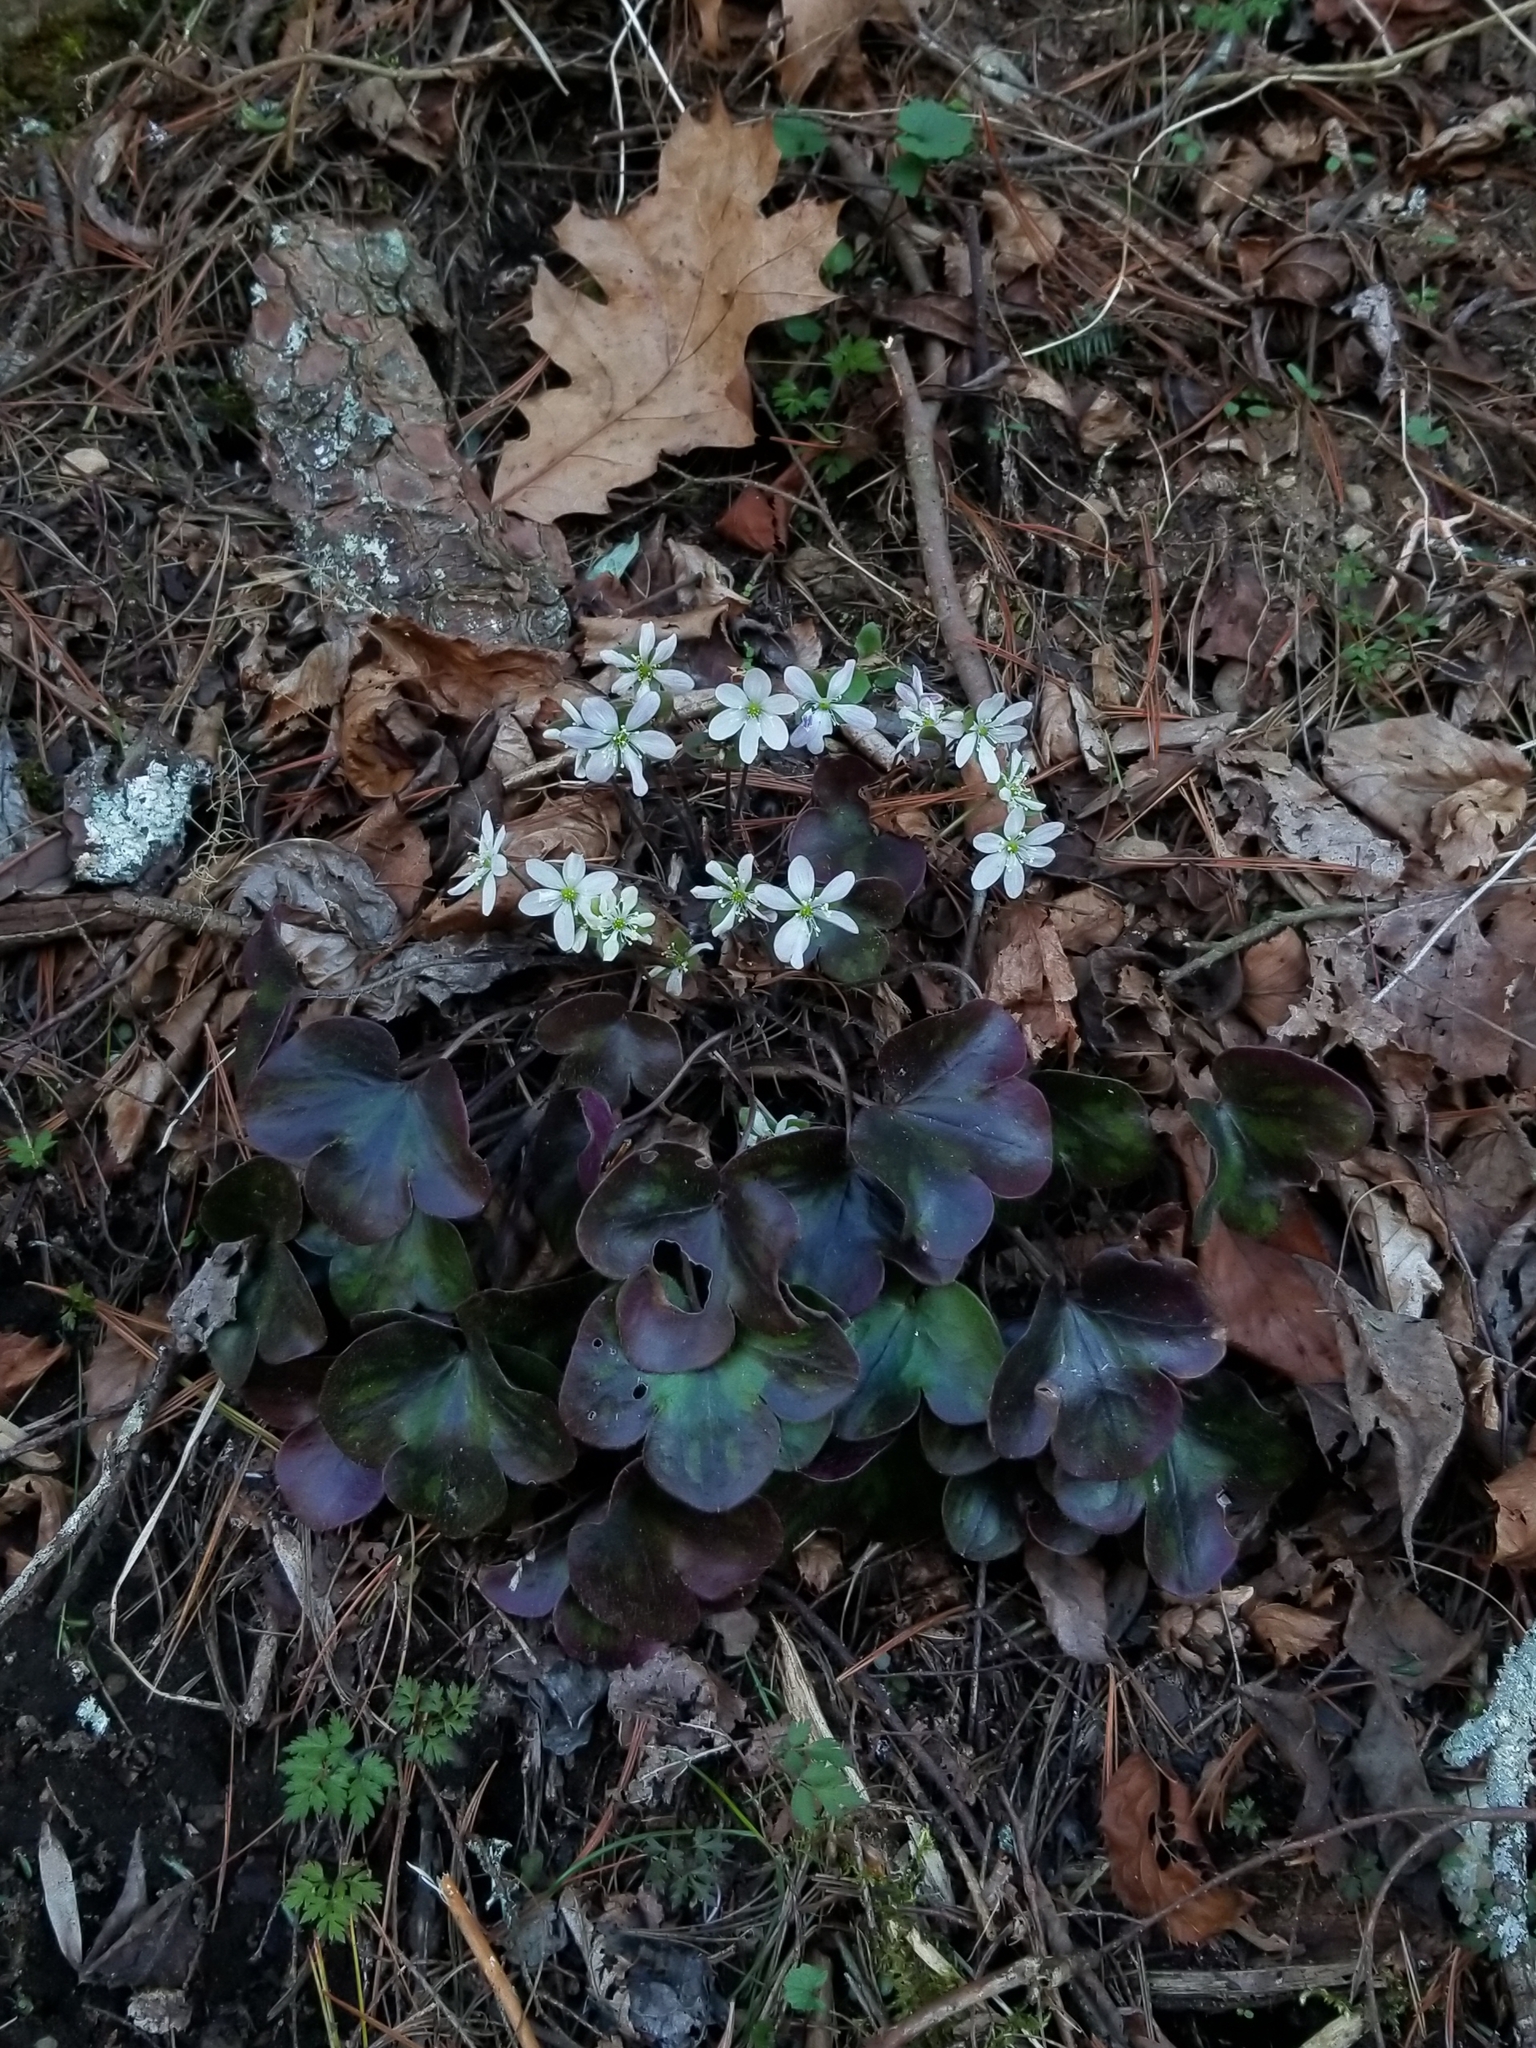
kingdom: Plantae
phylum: Tracheophyta
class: Magnoliopsida
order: Ranunculales
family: Ranunculaceae
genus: Hepatica
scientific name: Hepatica americana
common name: American hepatica
